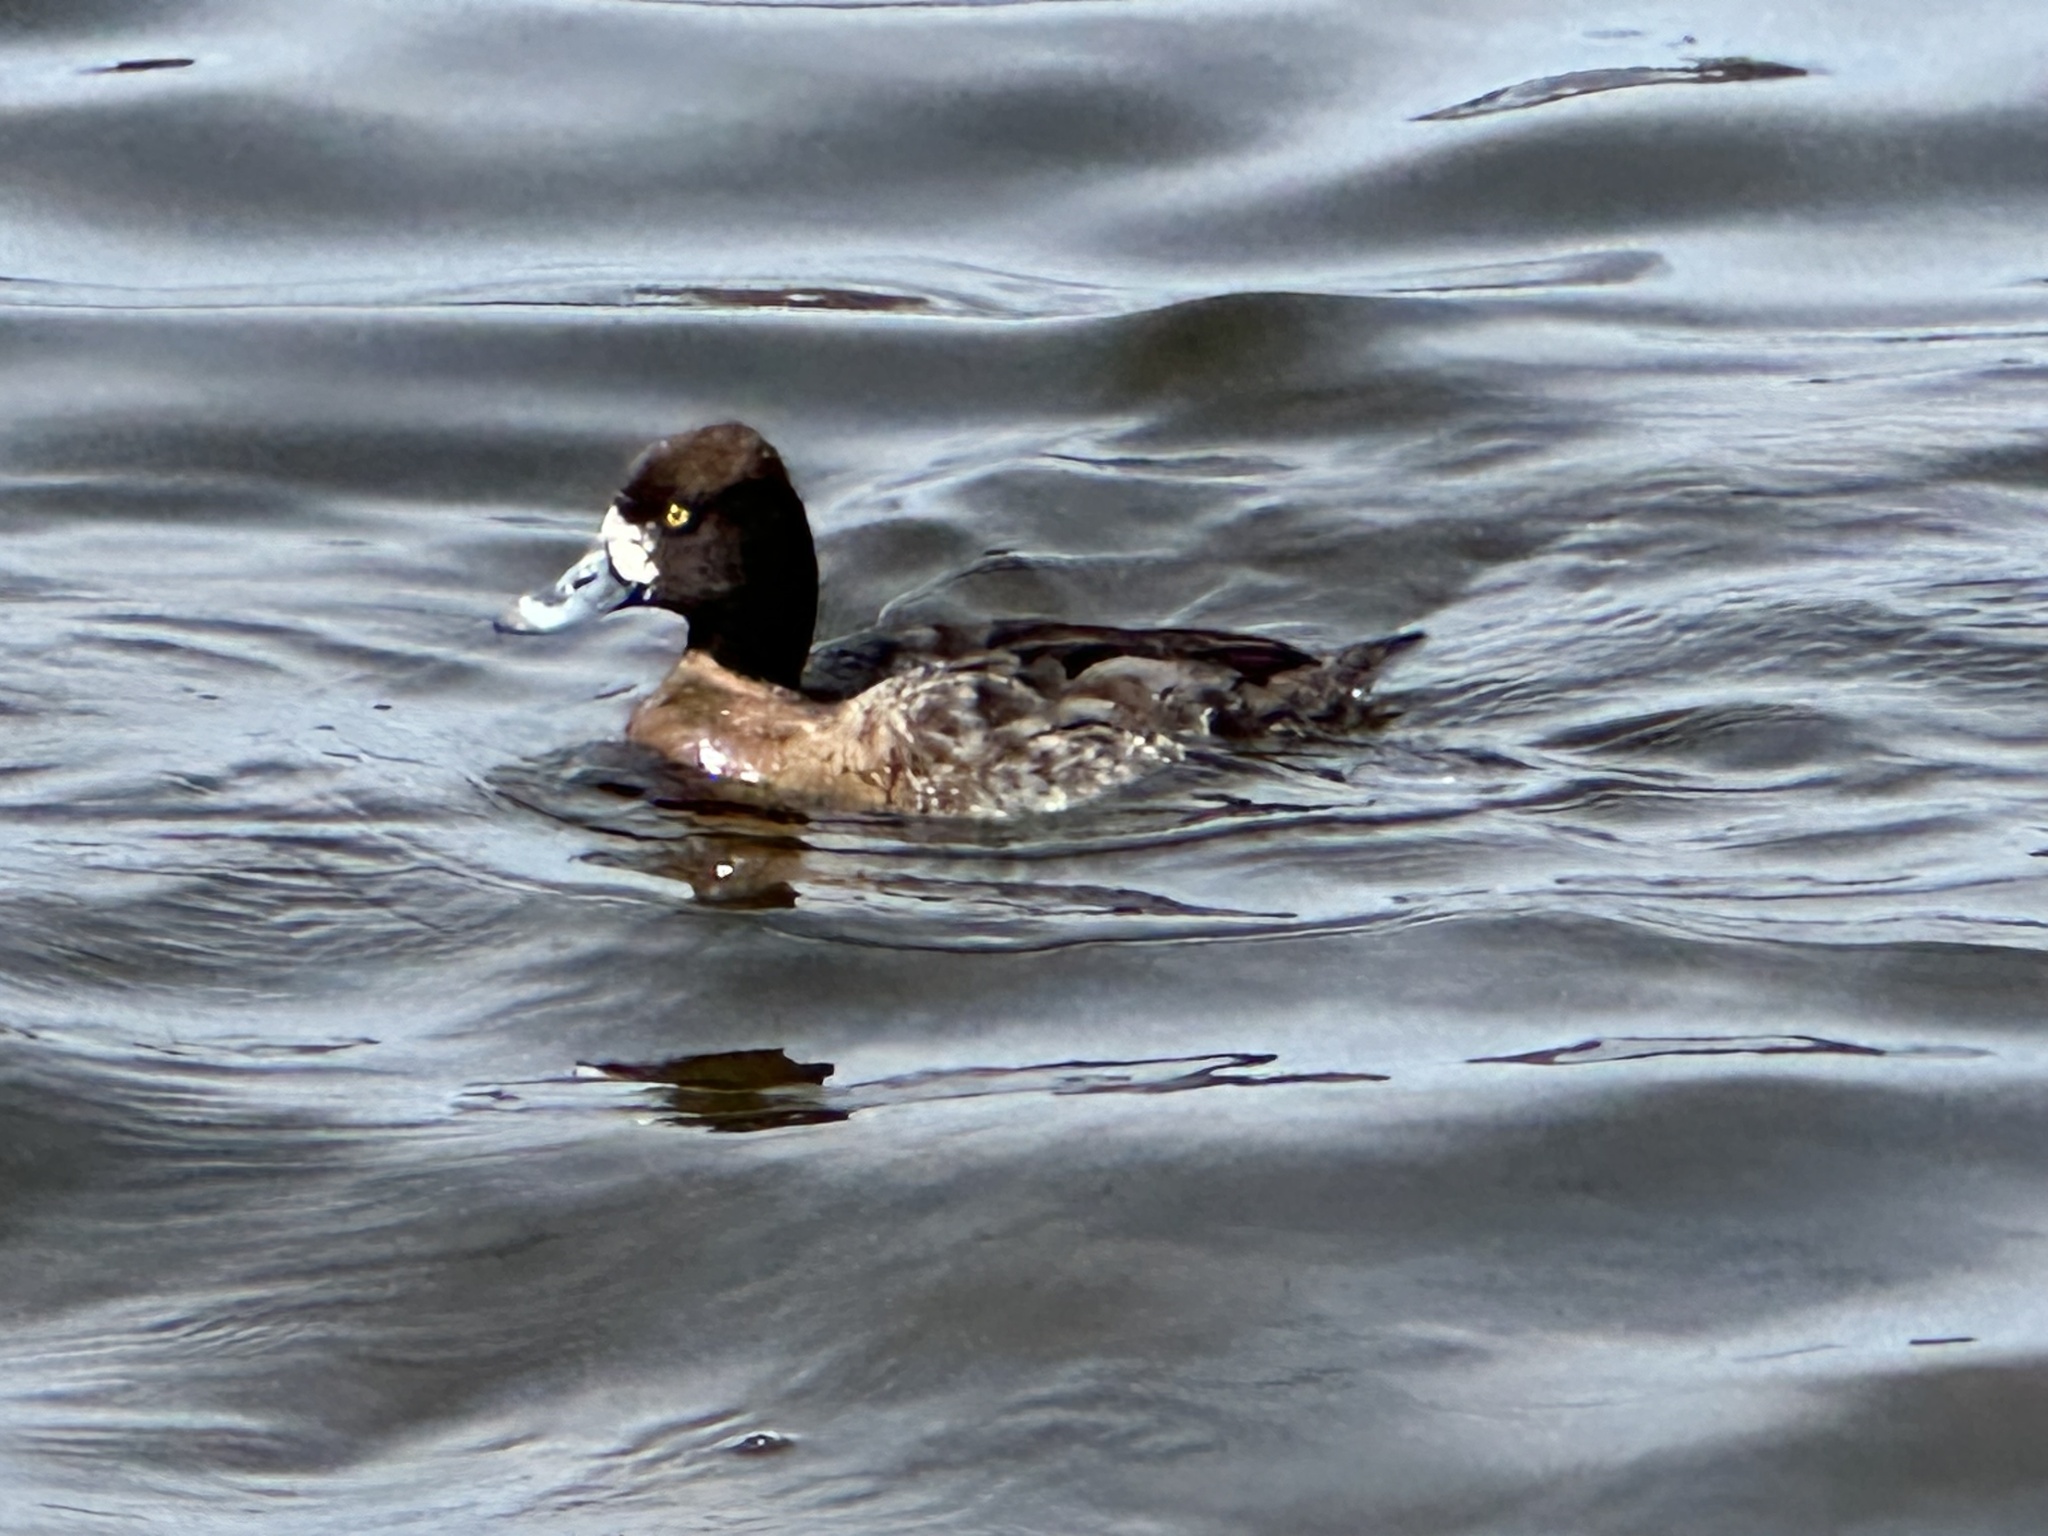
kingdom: Animalia
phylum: Chordata
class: Aves
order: Anseriformes
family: Anatidae
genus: Aythya
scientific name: Aythya affinis
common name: Lesser scaup
